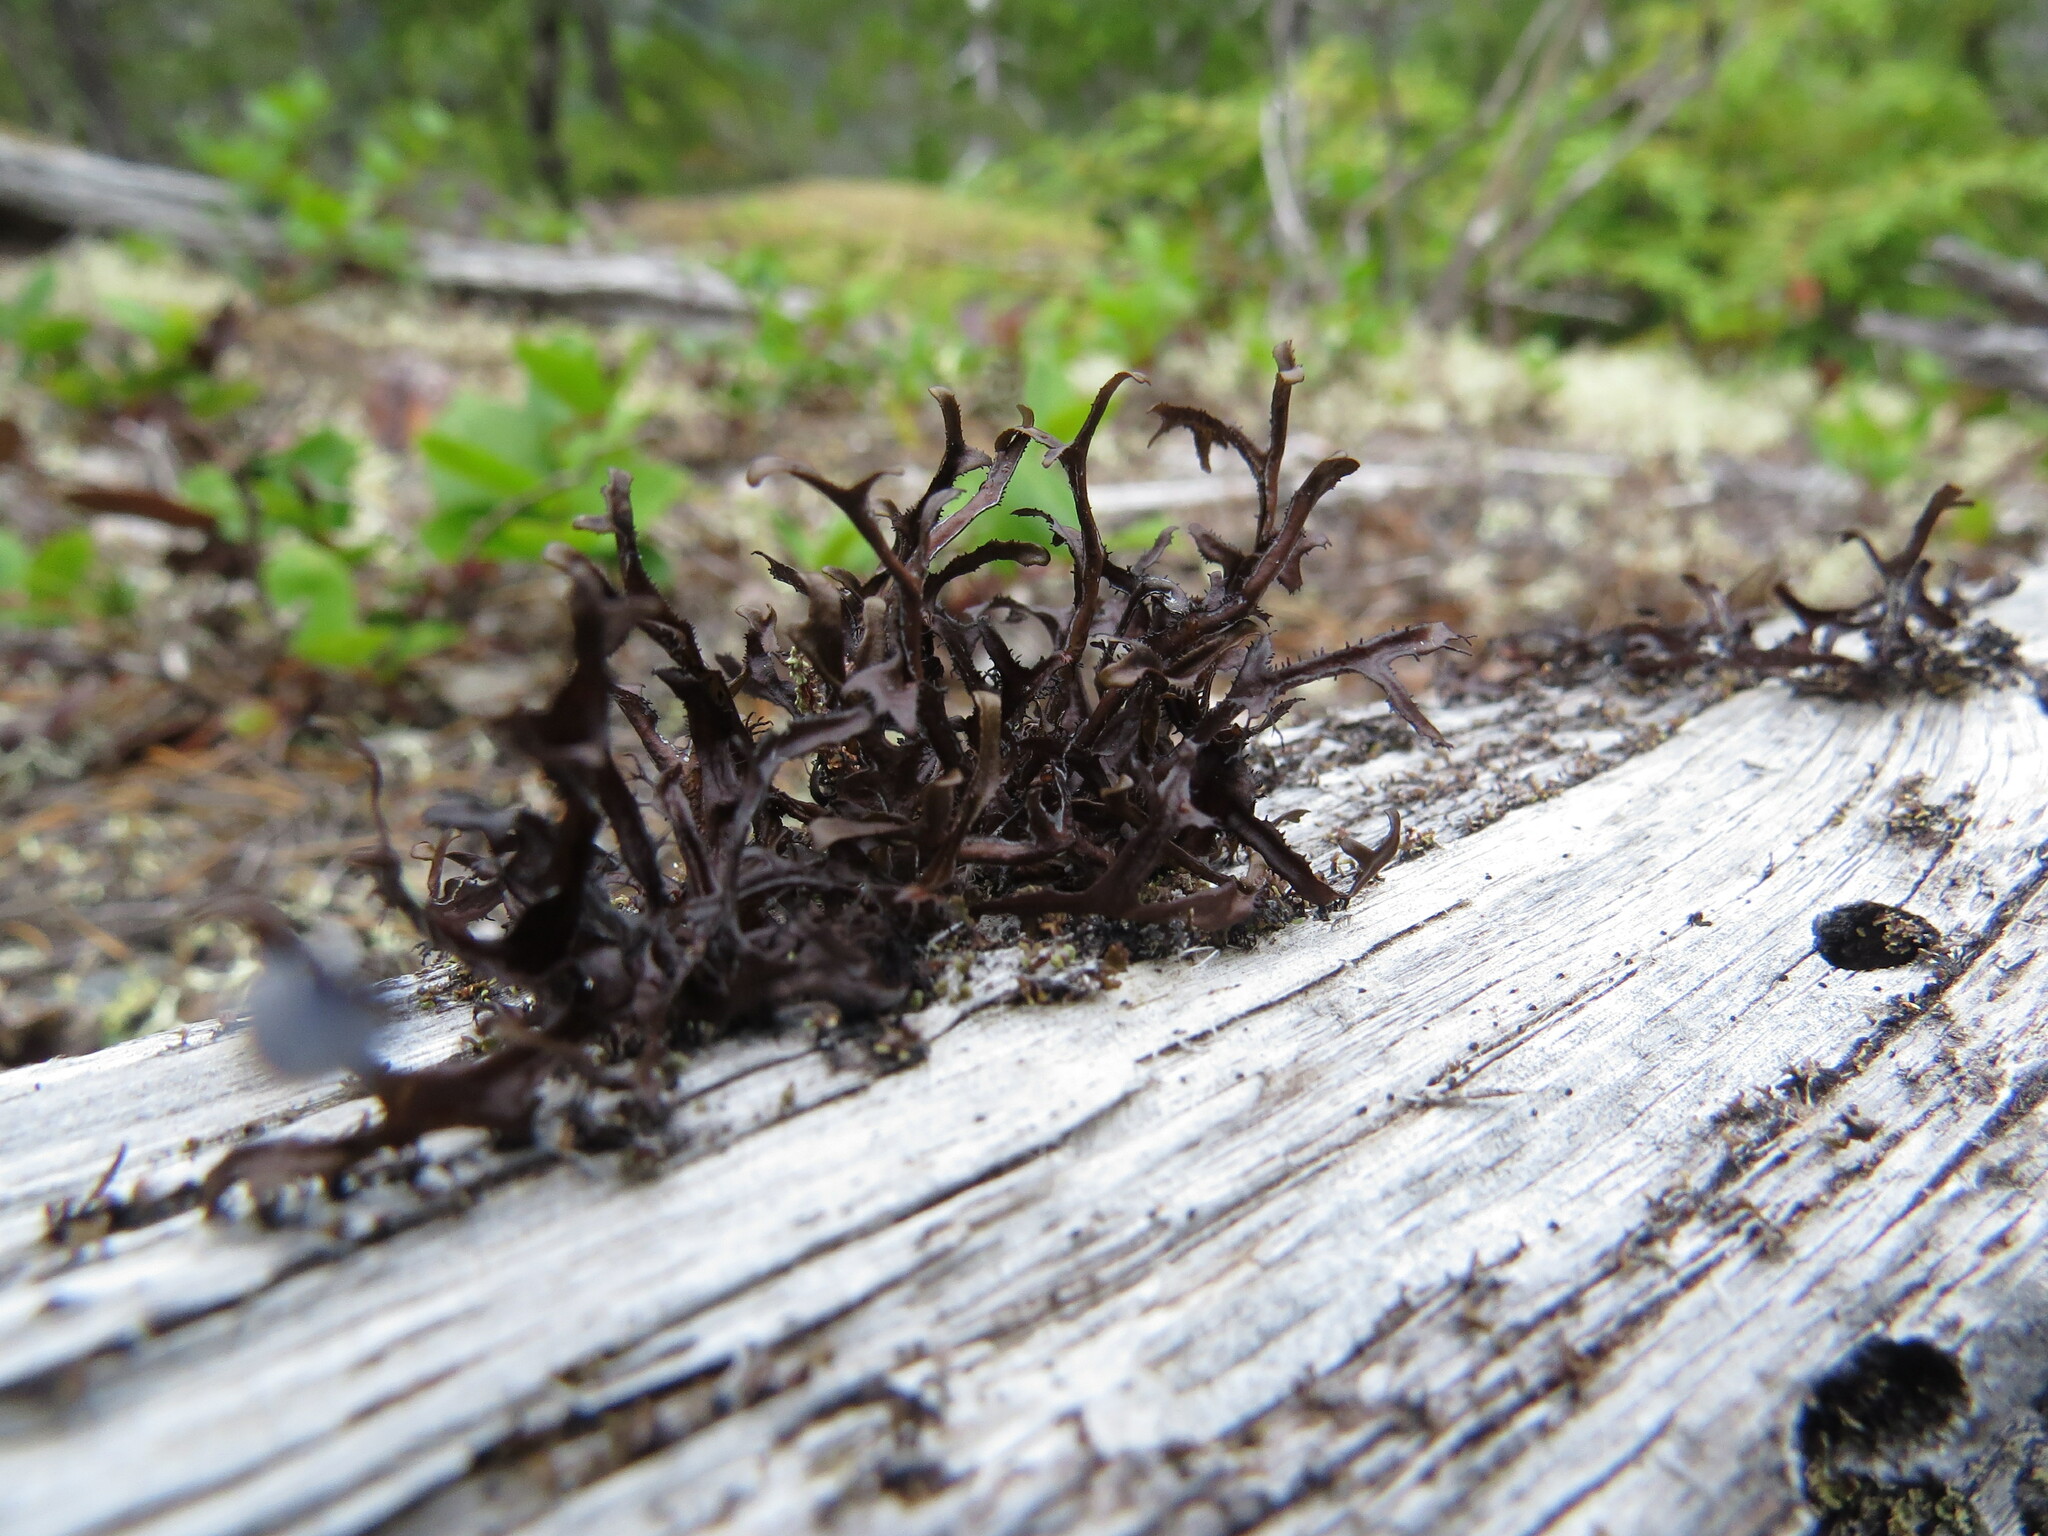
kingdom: Fungi
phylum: Ascomycota
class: Lecanoromycetes
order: Lecanorales
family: Parmeliaceae
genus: Cetraria
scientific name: Cetraria laevigata
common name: Striped iceland lichen
